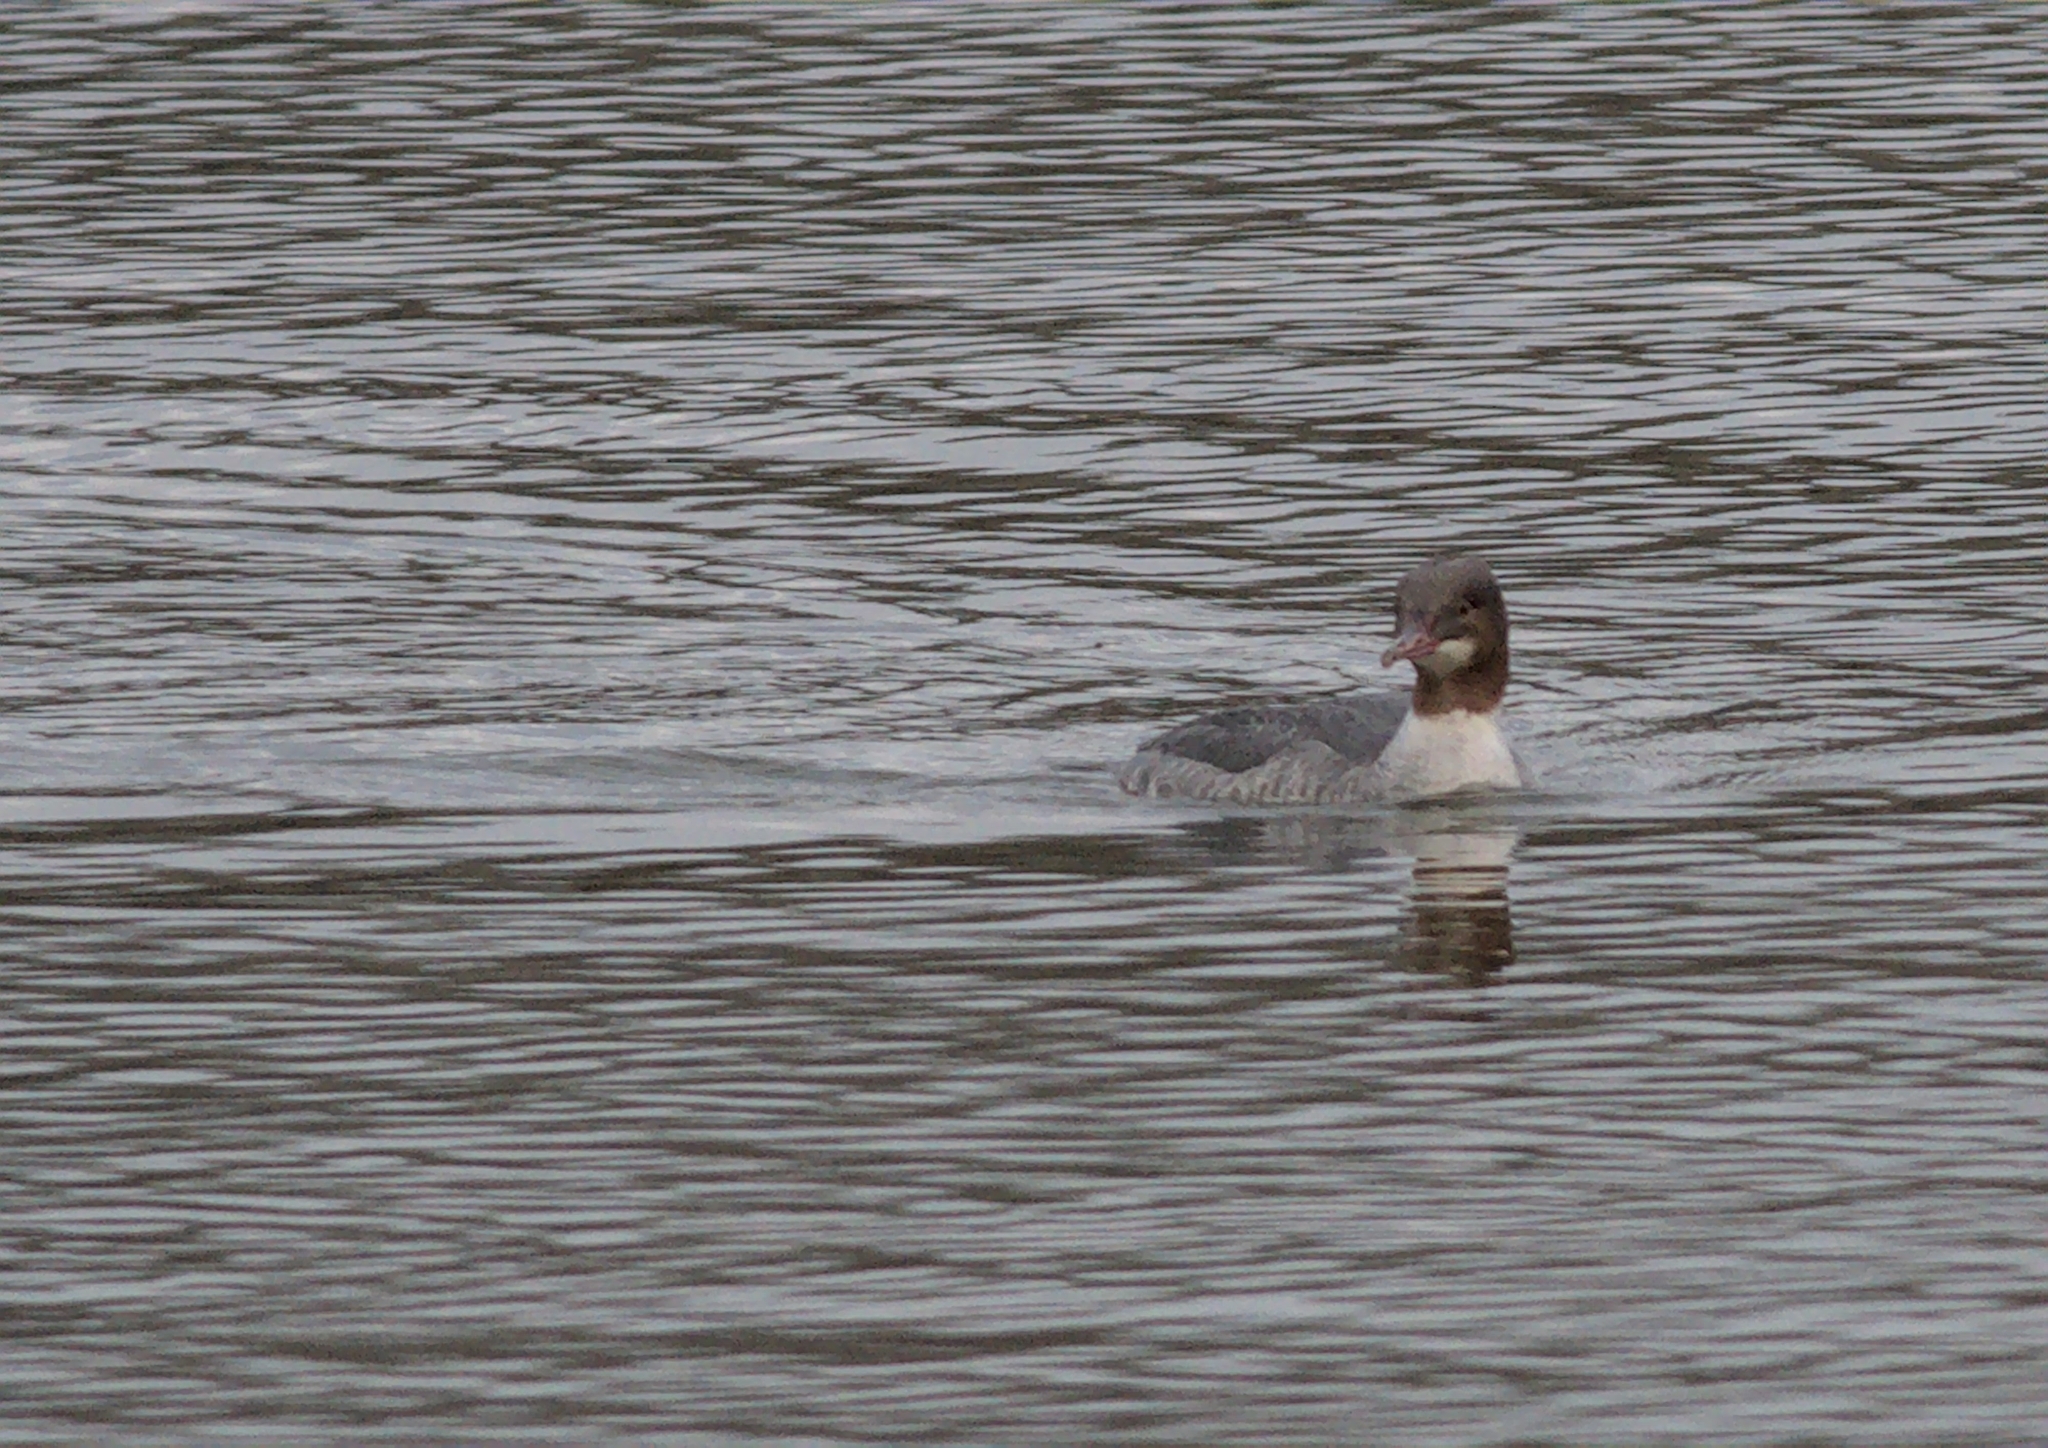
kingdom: Animalia
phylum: Chordata
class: Aves
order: Anseriformes
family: Anatidae
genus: Mergus
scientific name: Mergus merganser
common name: Common merganser
